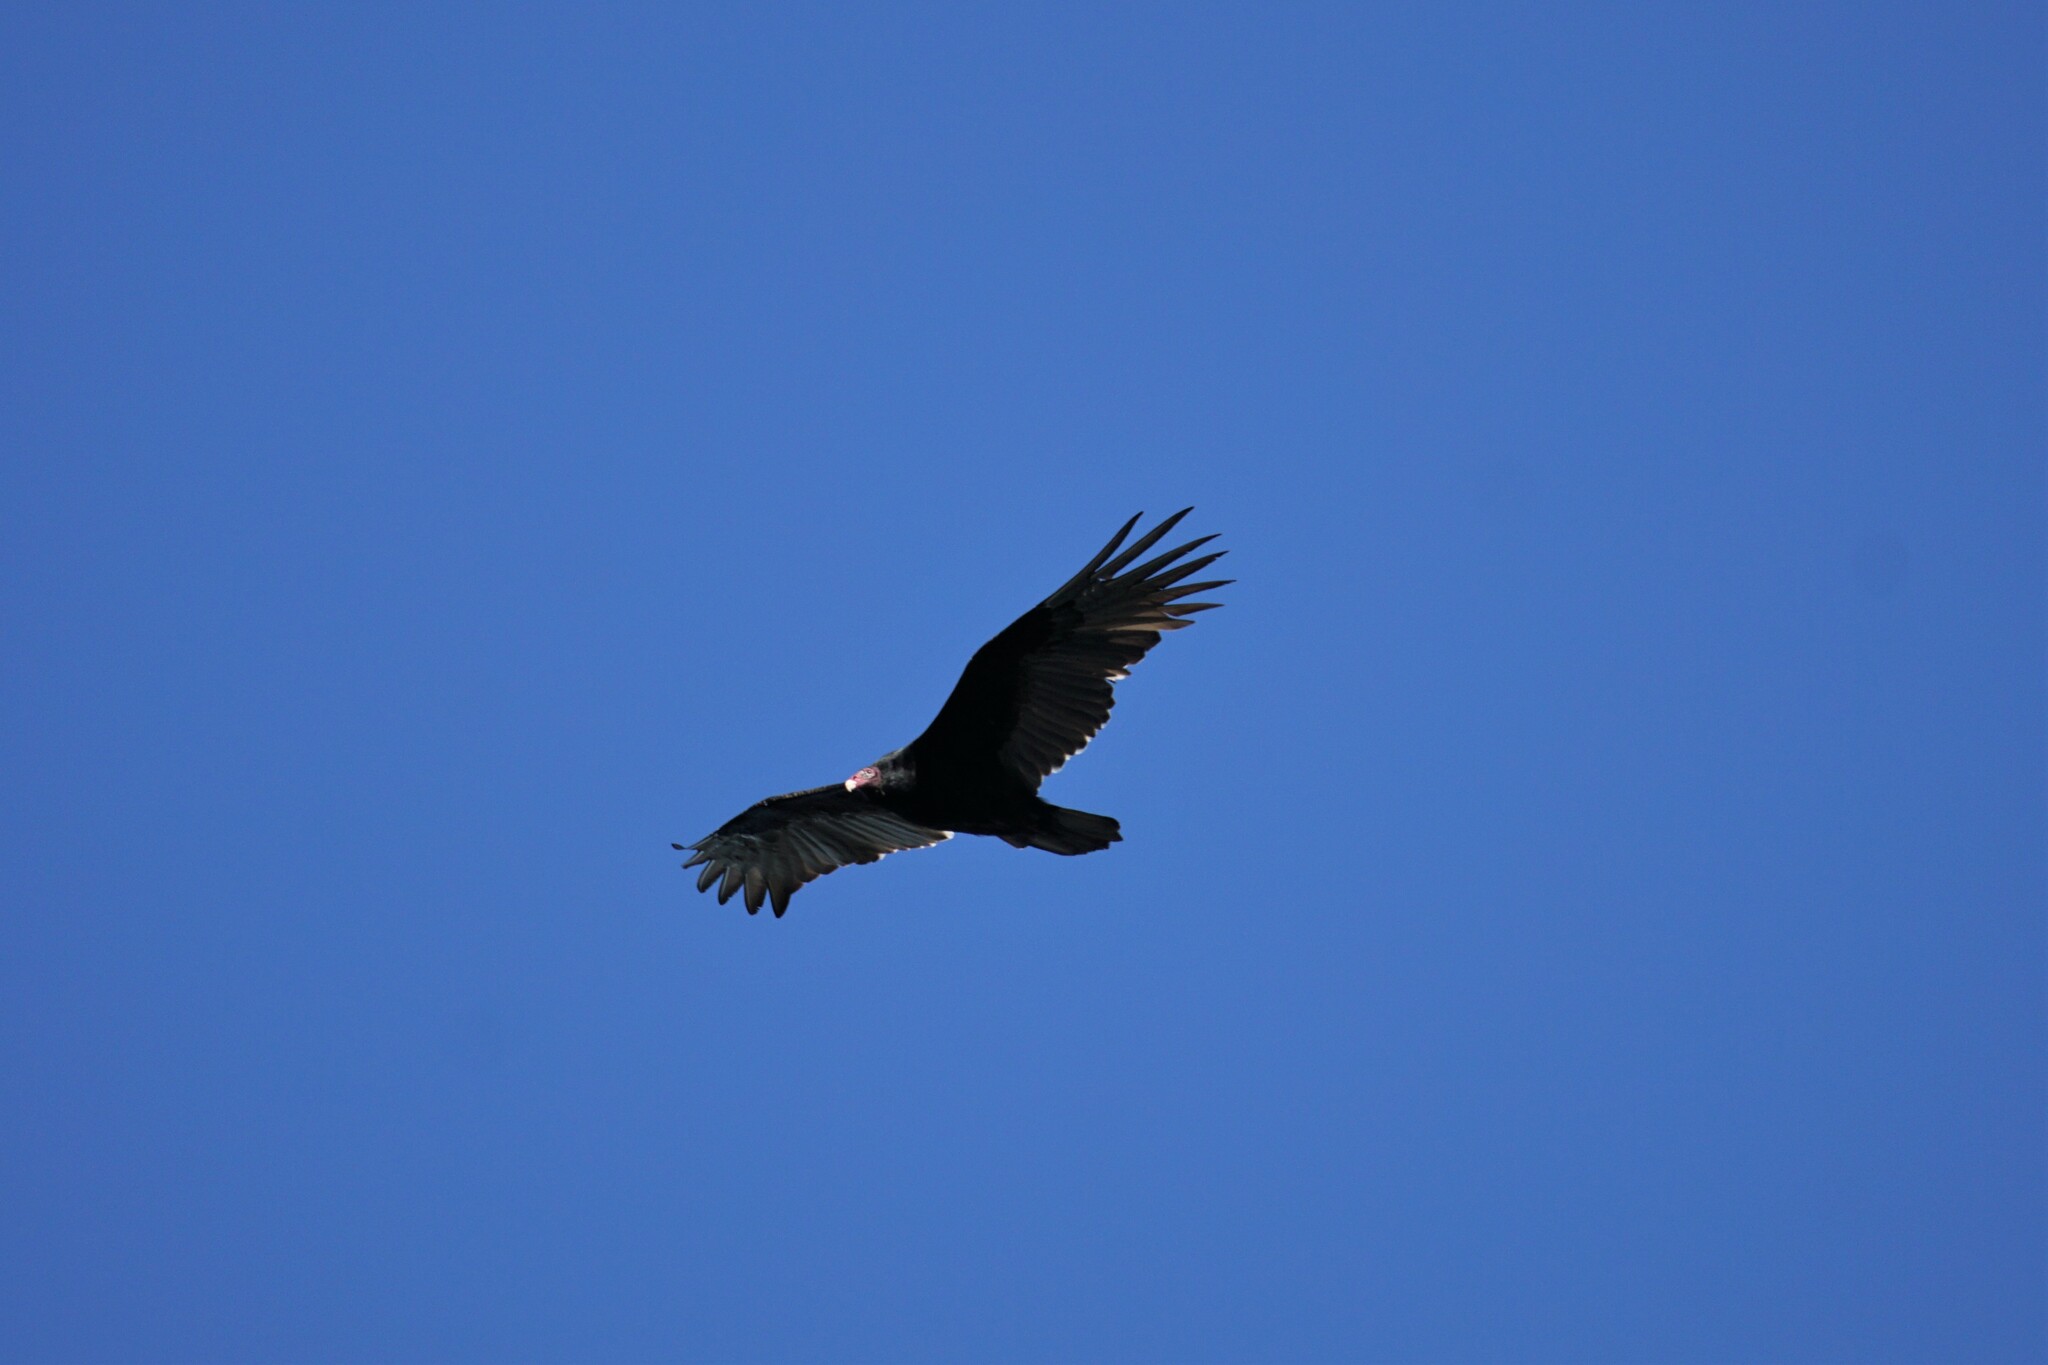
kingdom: Animalia
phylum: Chordata
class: Aves
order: Accipitriformes
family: Cathartidae
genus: Cathartes
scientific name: Cathartes aura
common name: Turkey vulture
